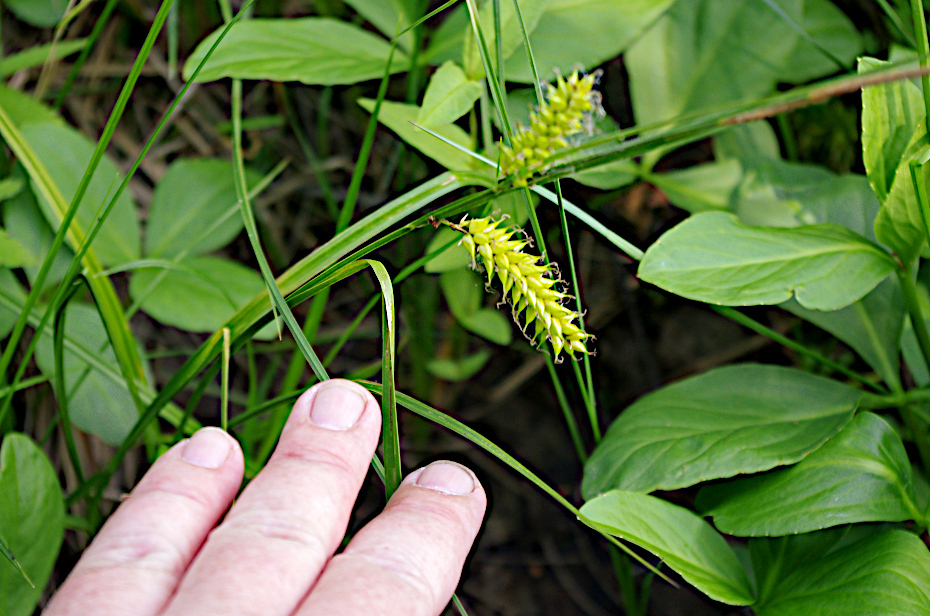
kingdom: Plantae
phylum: Tracheophyta
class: Liliopsida
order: Poales
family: Cyperaceae
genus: Carex
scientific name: Carex vesicaria
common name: Bladder-sedge
